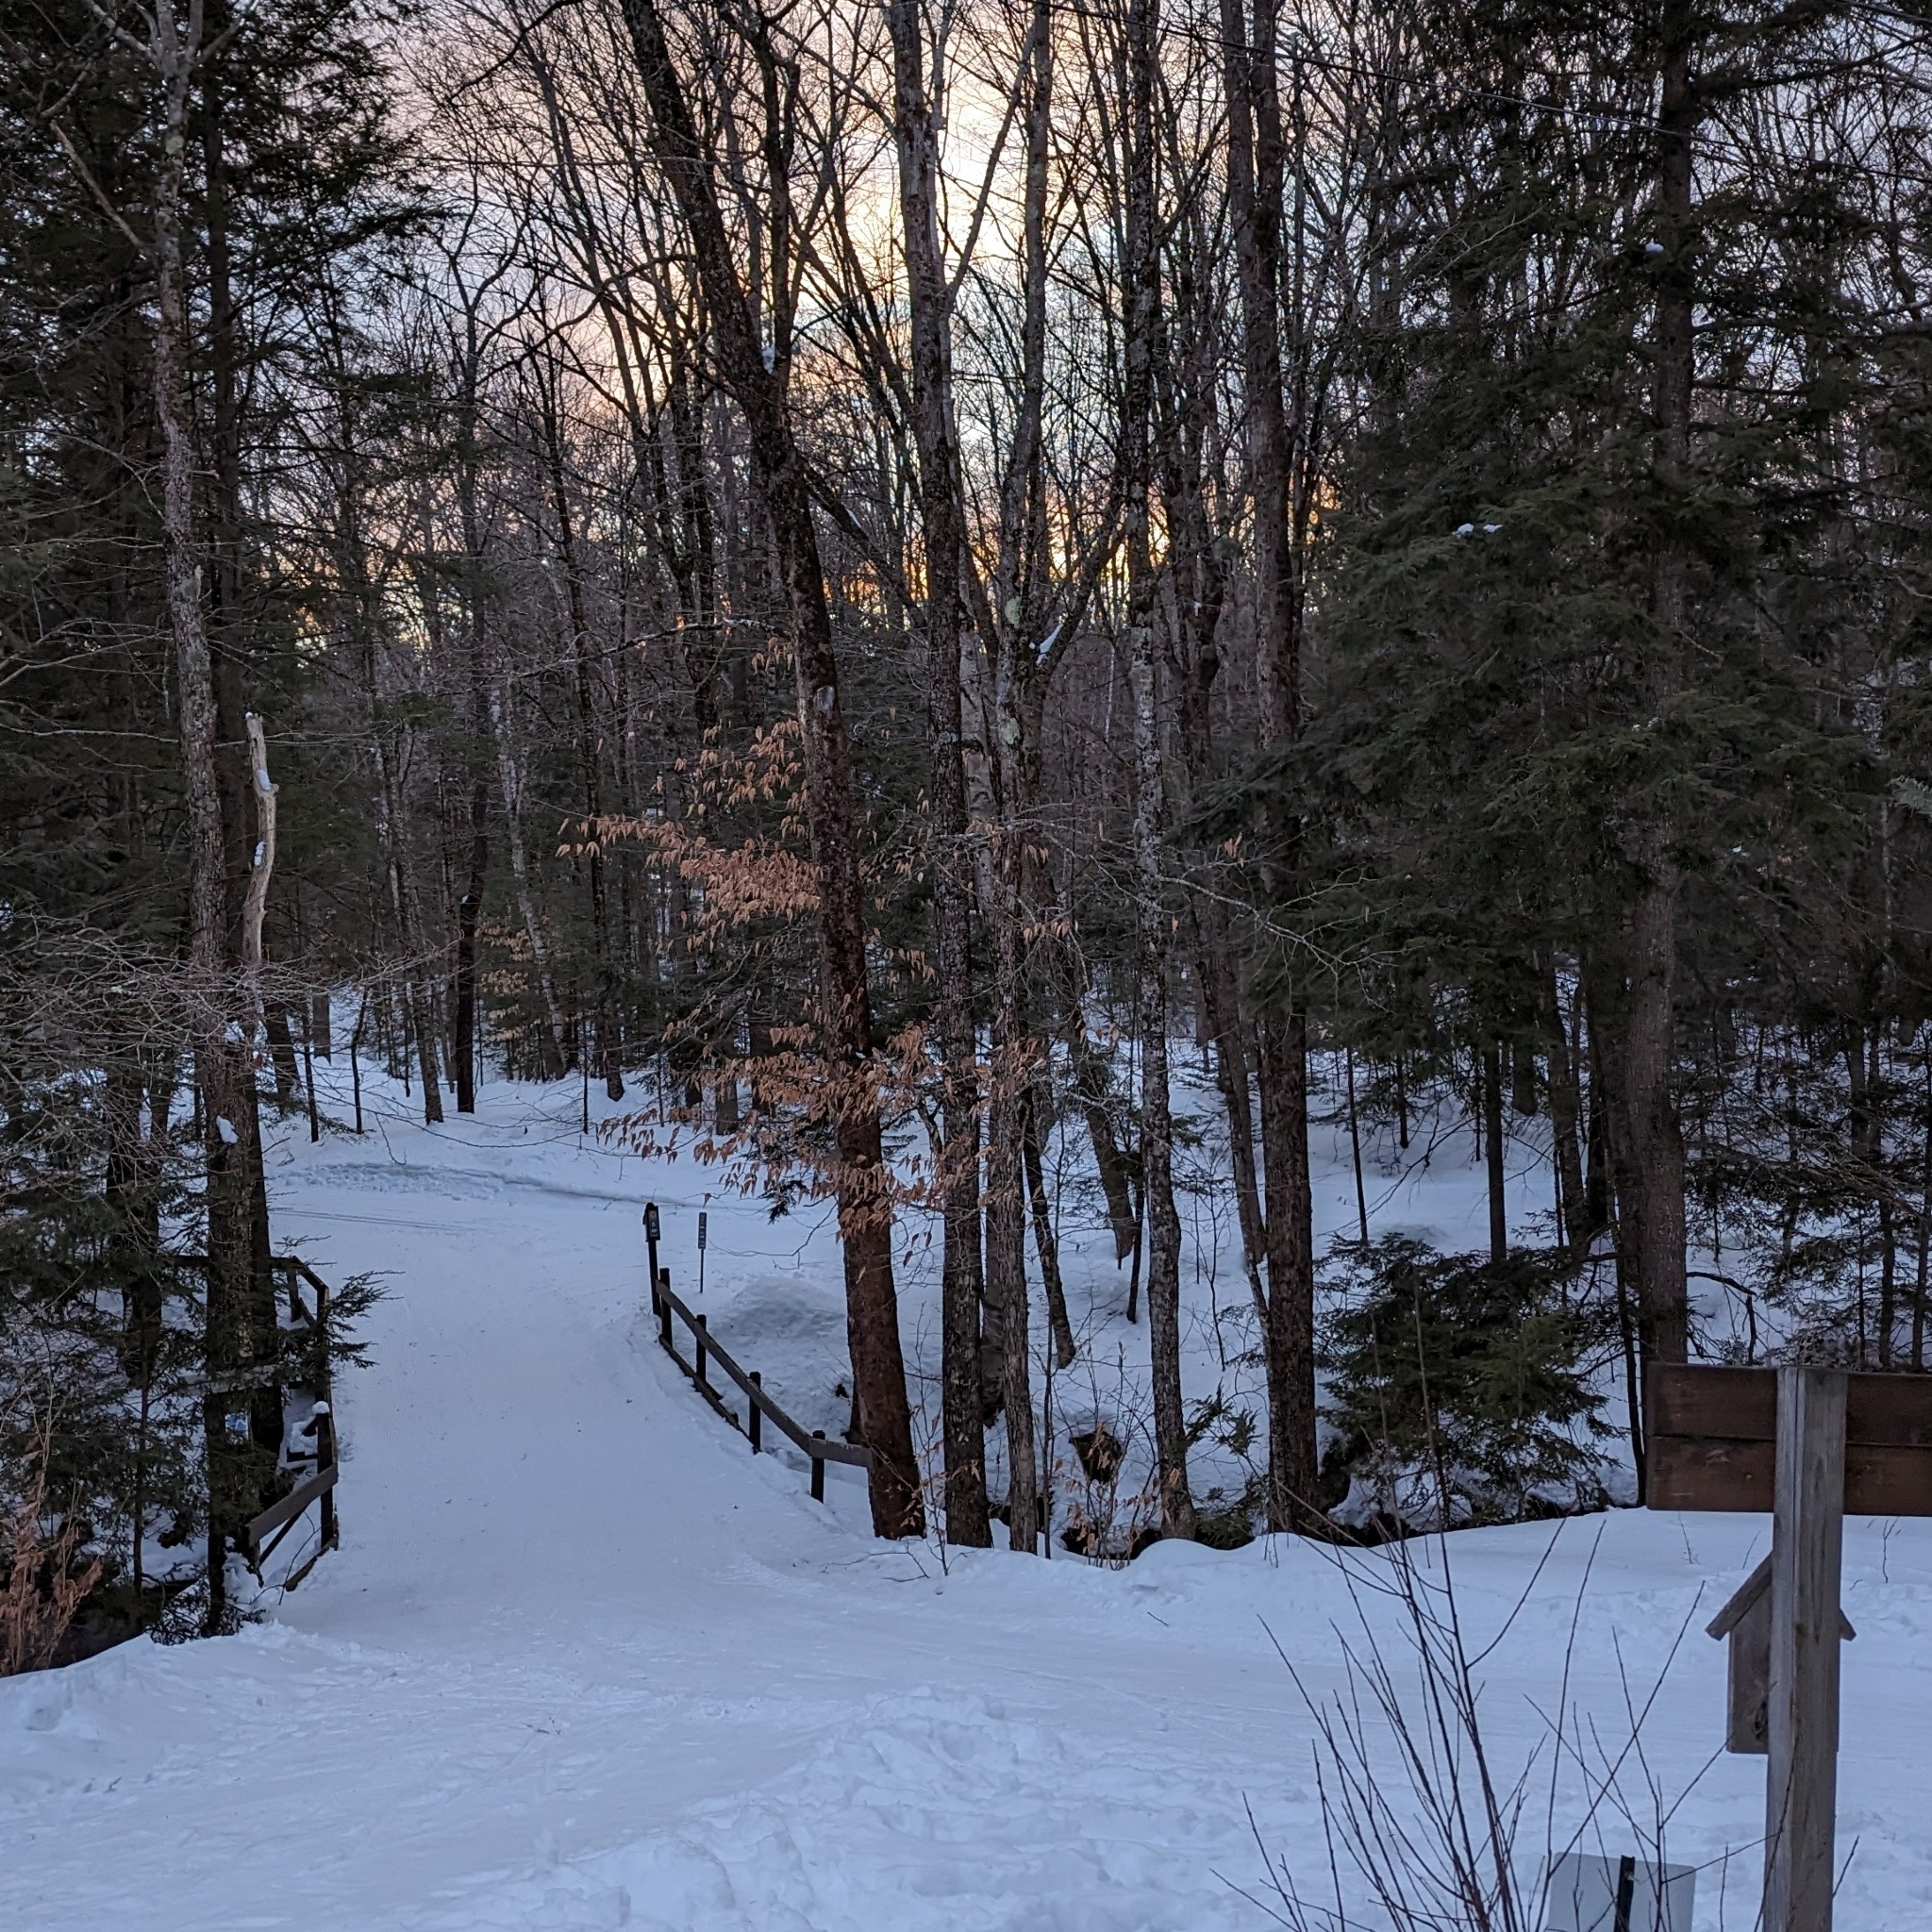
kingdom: Plantae
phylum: Tracheophyta
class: Magnoliopsida
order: Fagales
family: Fagaceae
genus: Fagus
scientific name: Fagus grandifolia
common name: American beech
